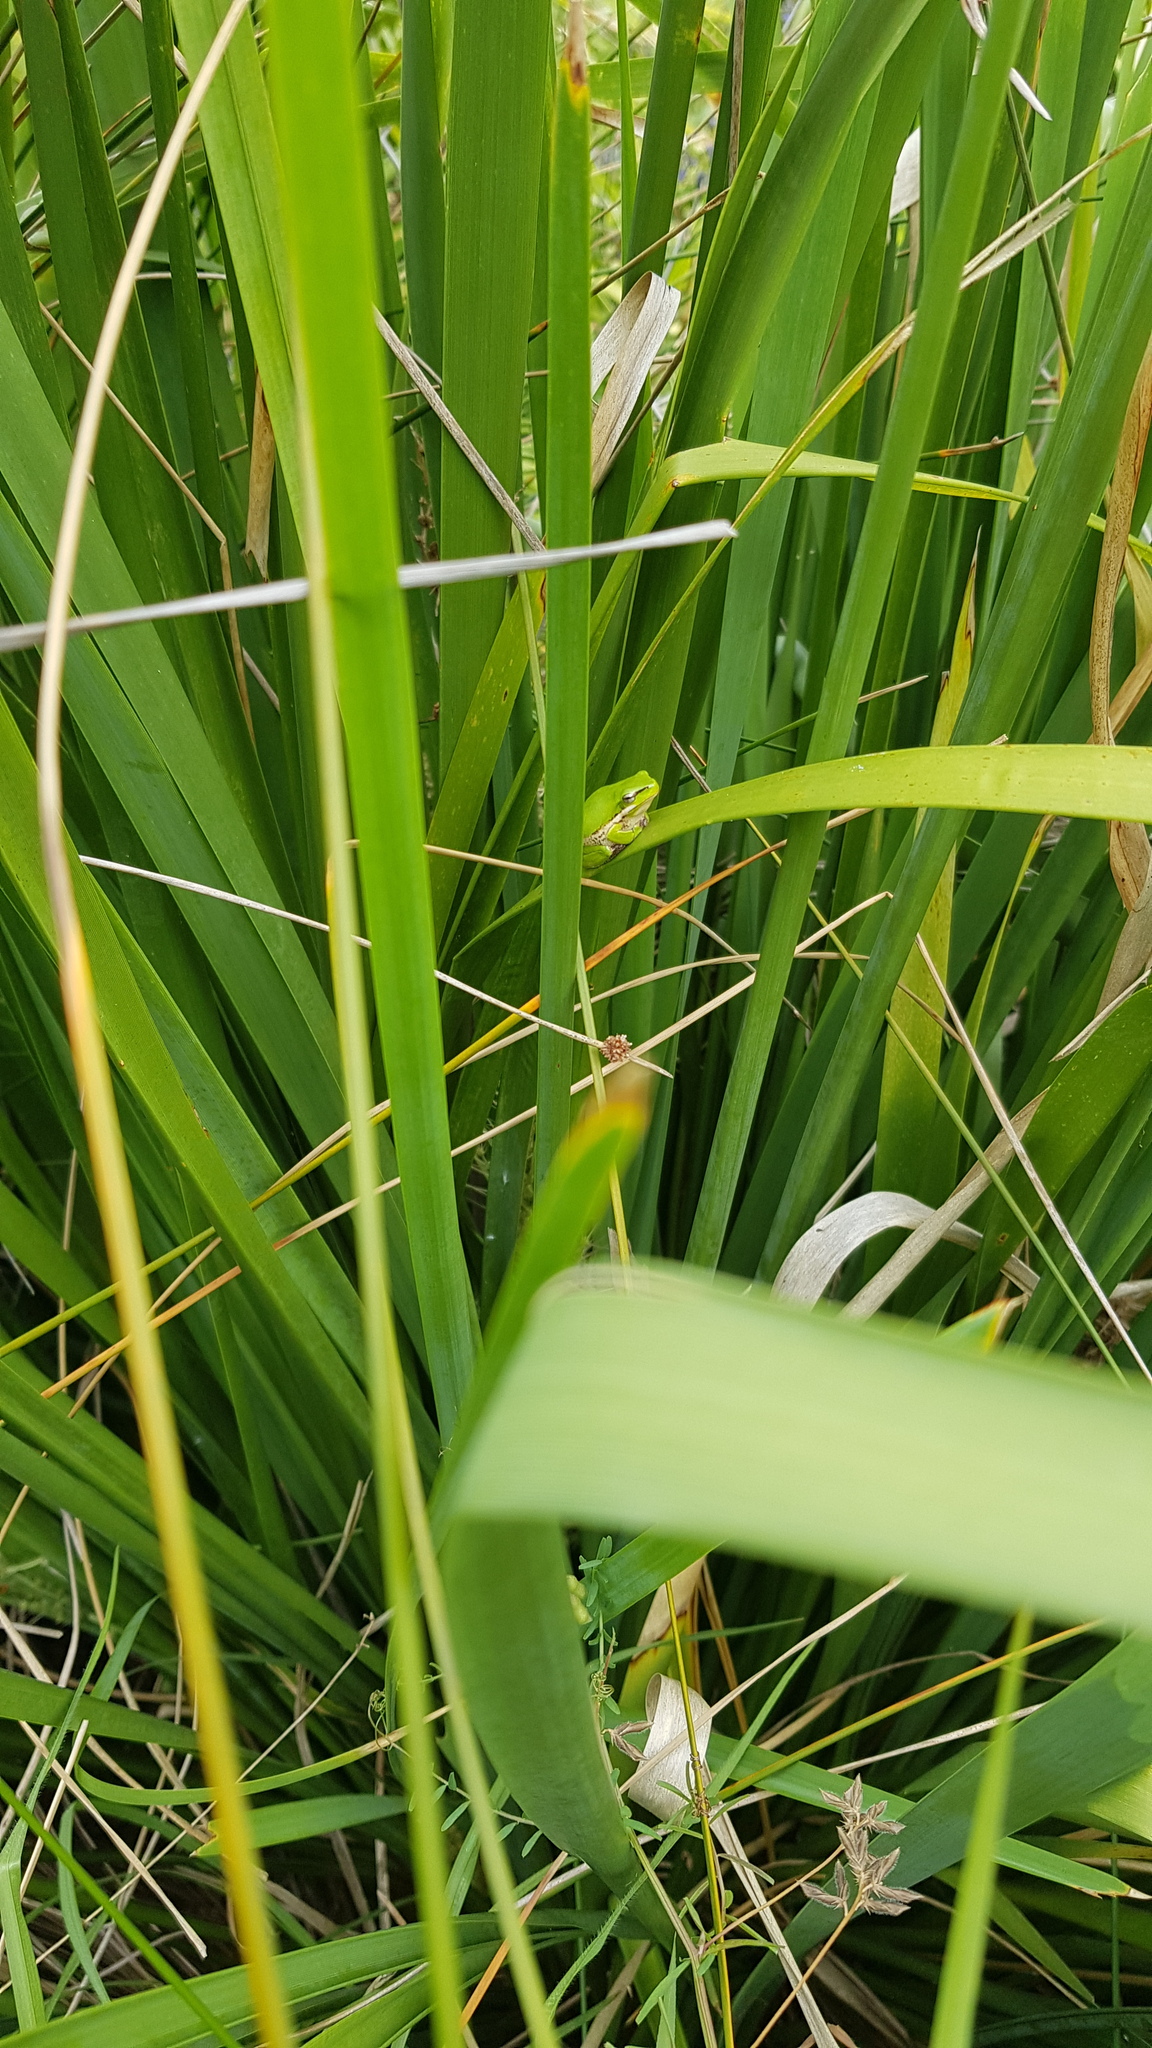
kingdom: Animalia
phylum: Chordata
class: Amphibia
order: Anura
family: Pelodryadidae
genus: Litoria
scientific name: Litoria fallax
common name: Eastern dwarf treefrog
